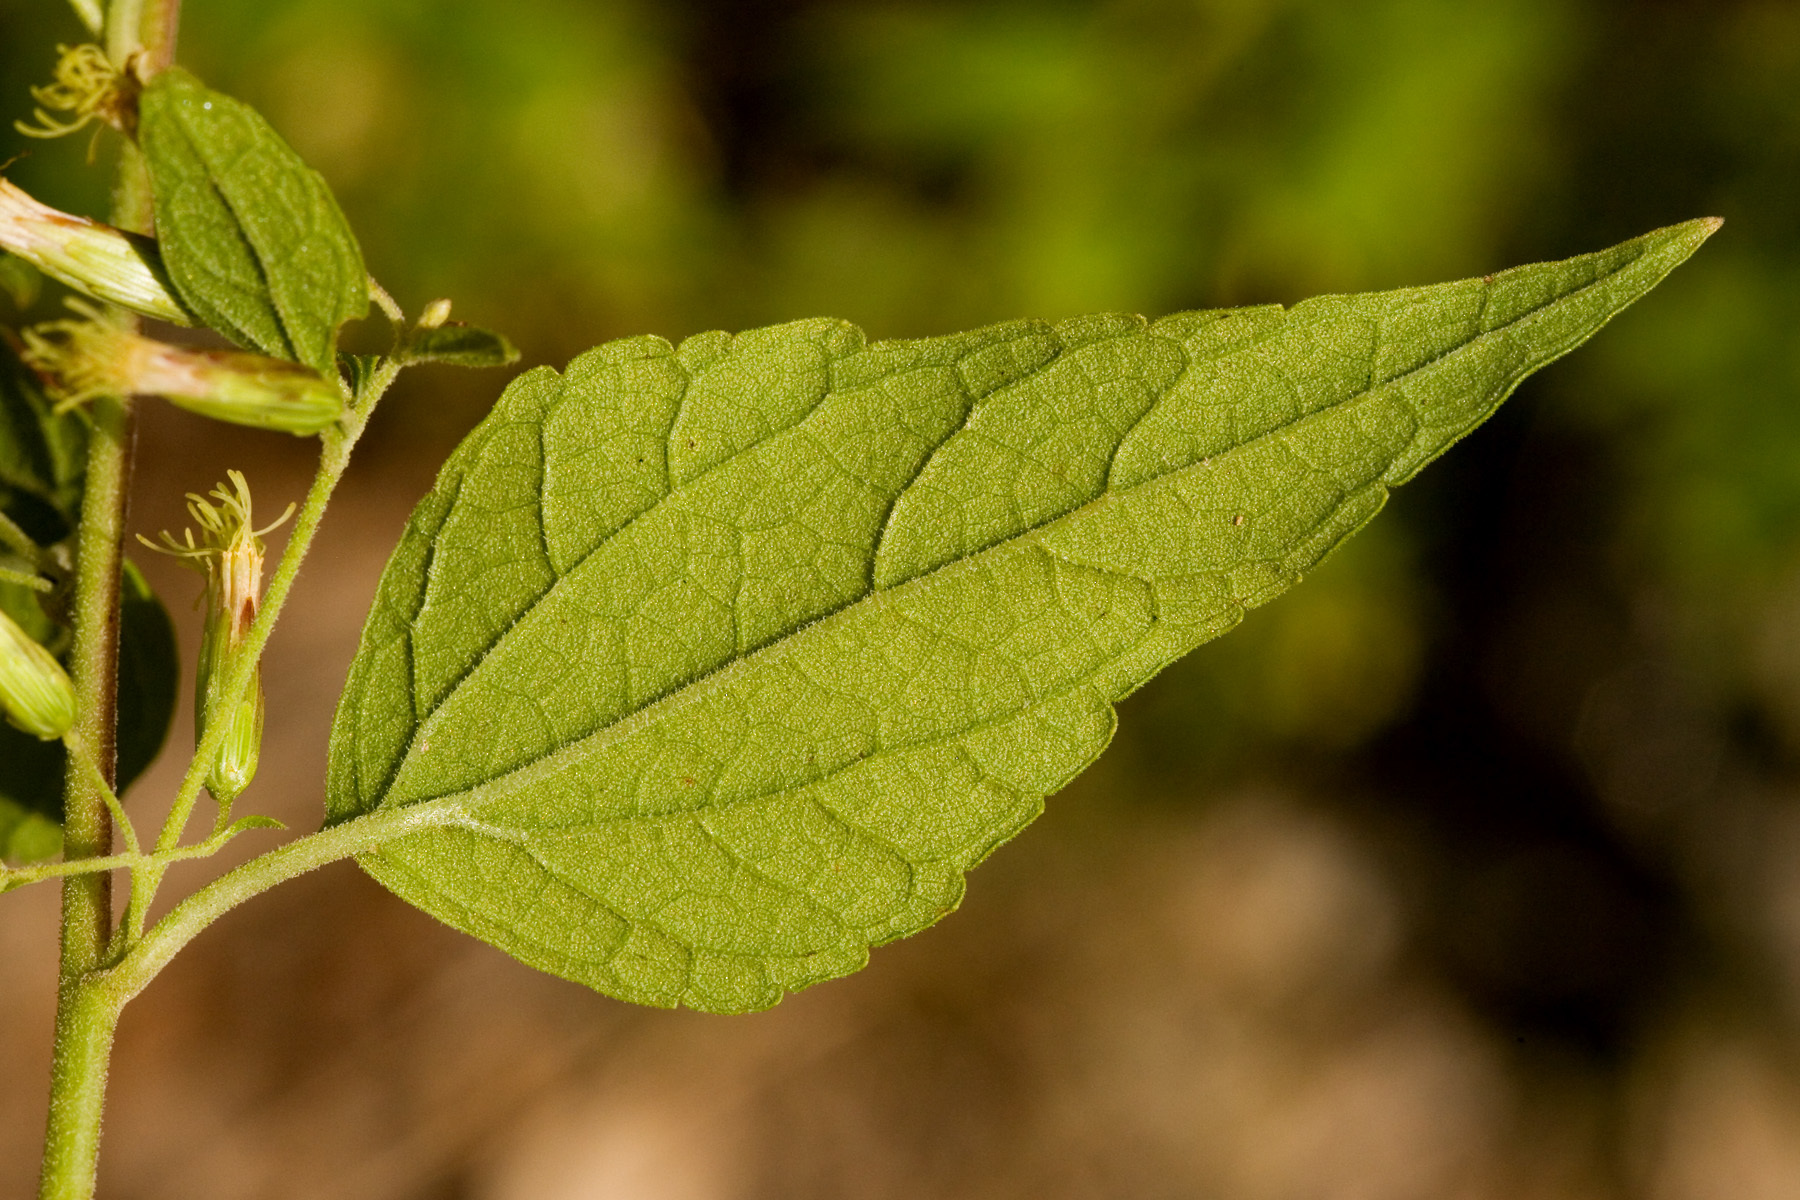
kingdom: Plantae
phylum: Tracheophyta
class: Magnoliopsida
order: Asterales
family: Asteraceae
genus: Brickellia
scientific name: Brickellia rusbyi
